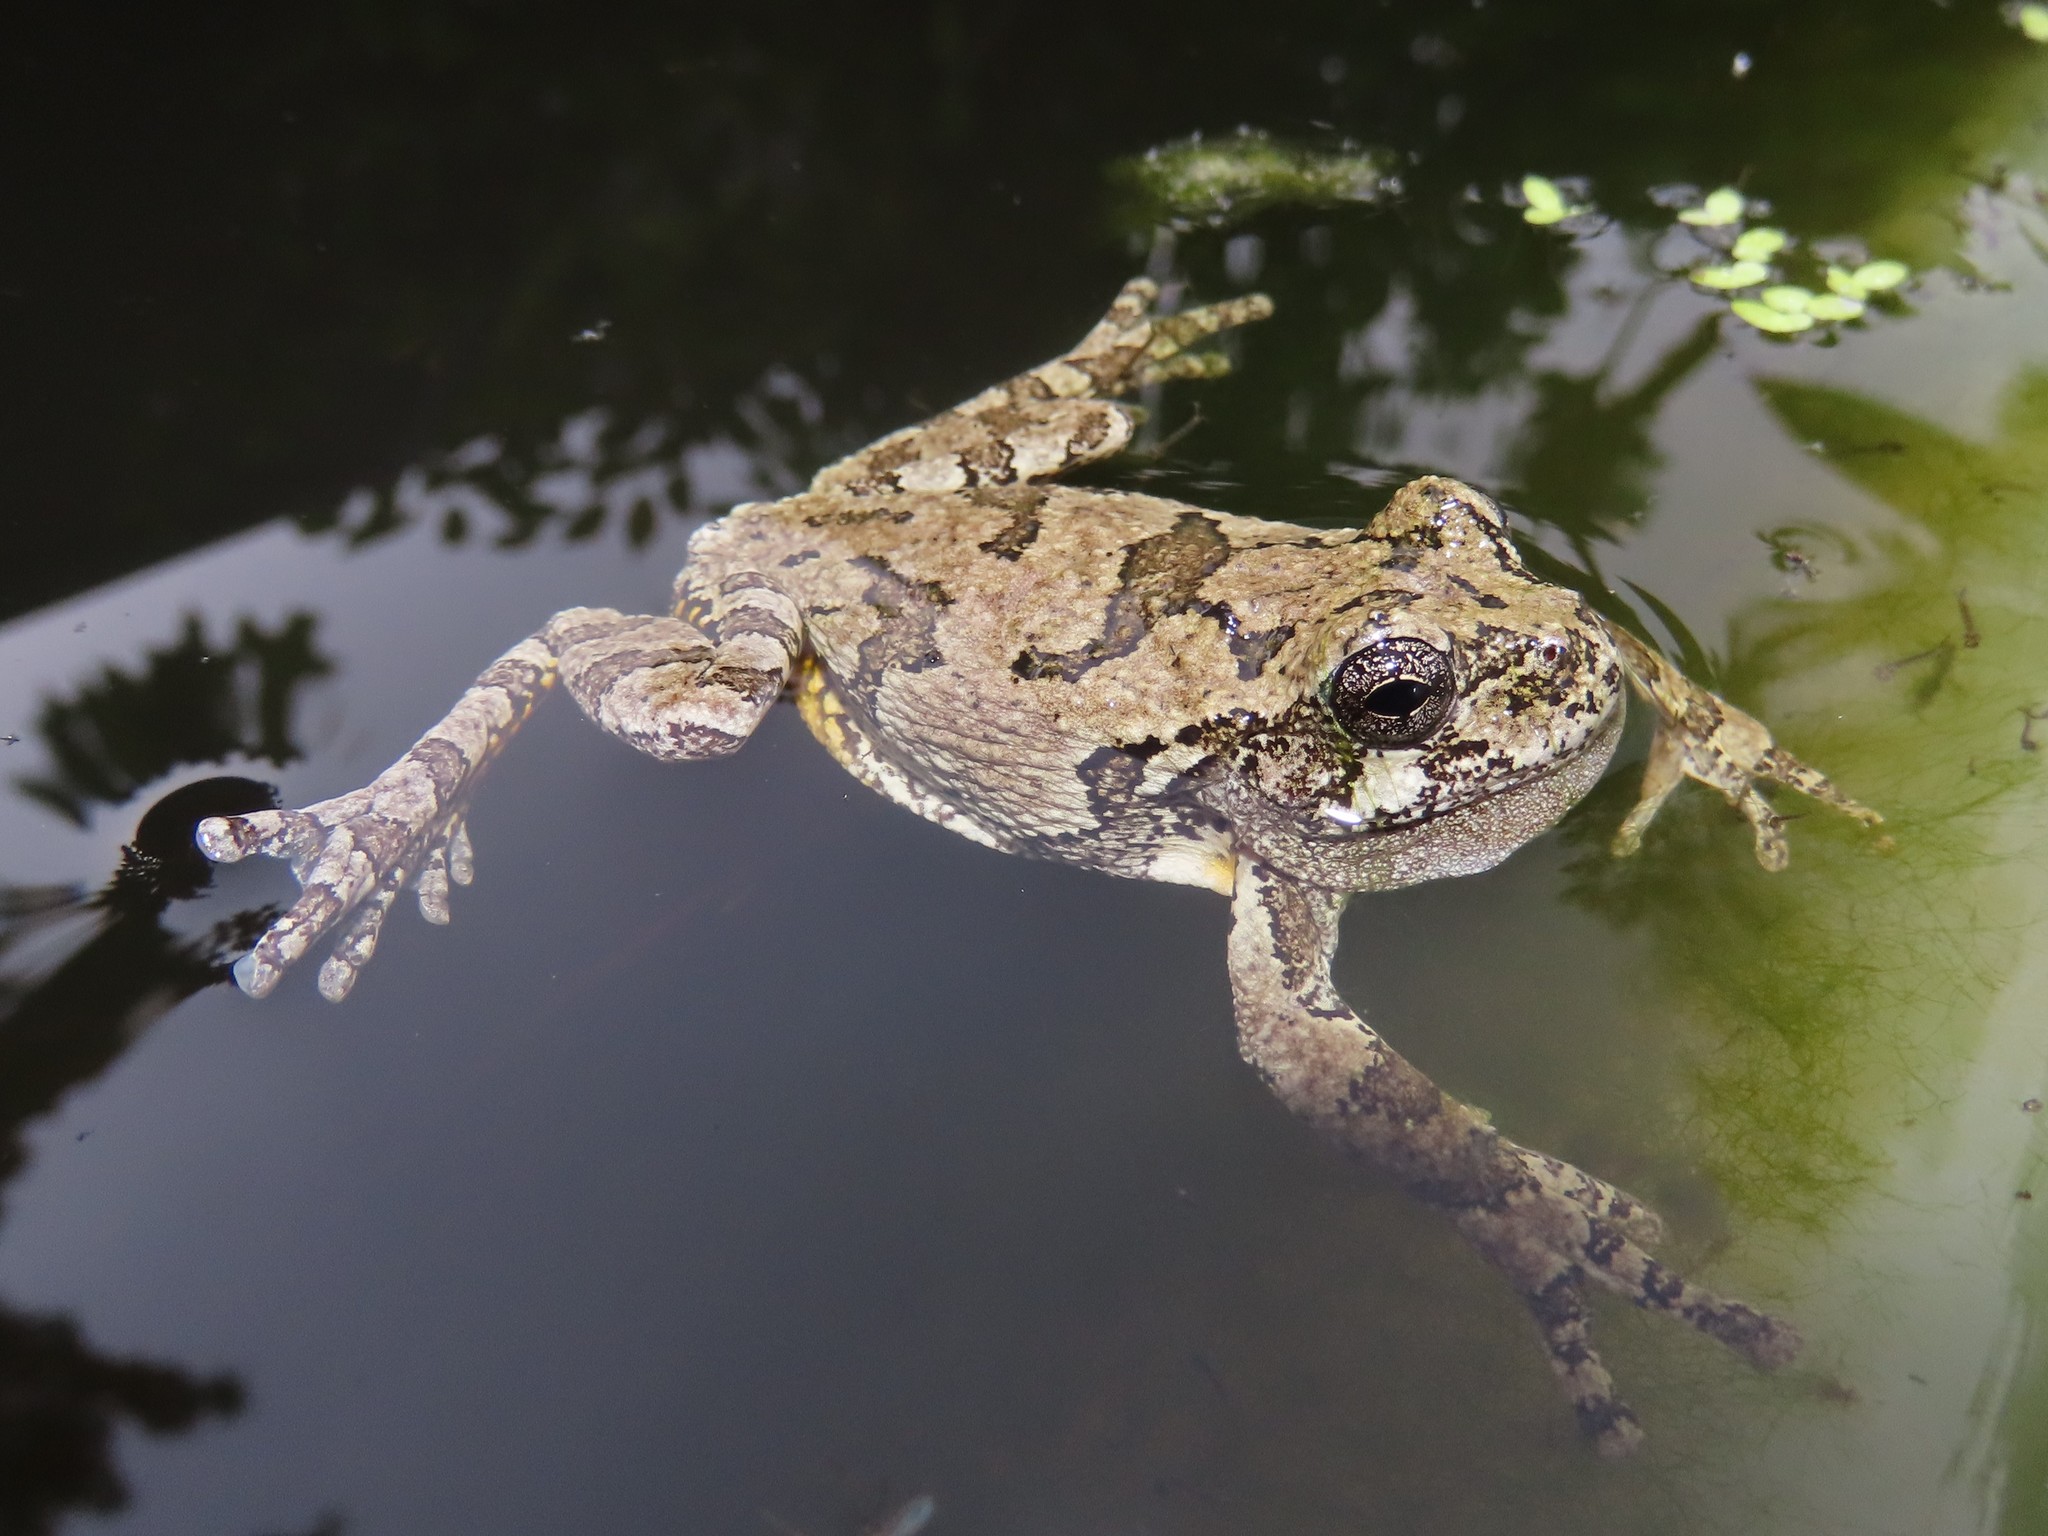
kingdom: Animalia
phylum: Chordata
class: Amphibia
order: Anura
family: Hylidae
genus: Dryophytes
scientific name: Dryophytes versicolor
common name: Gray treefrog
